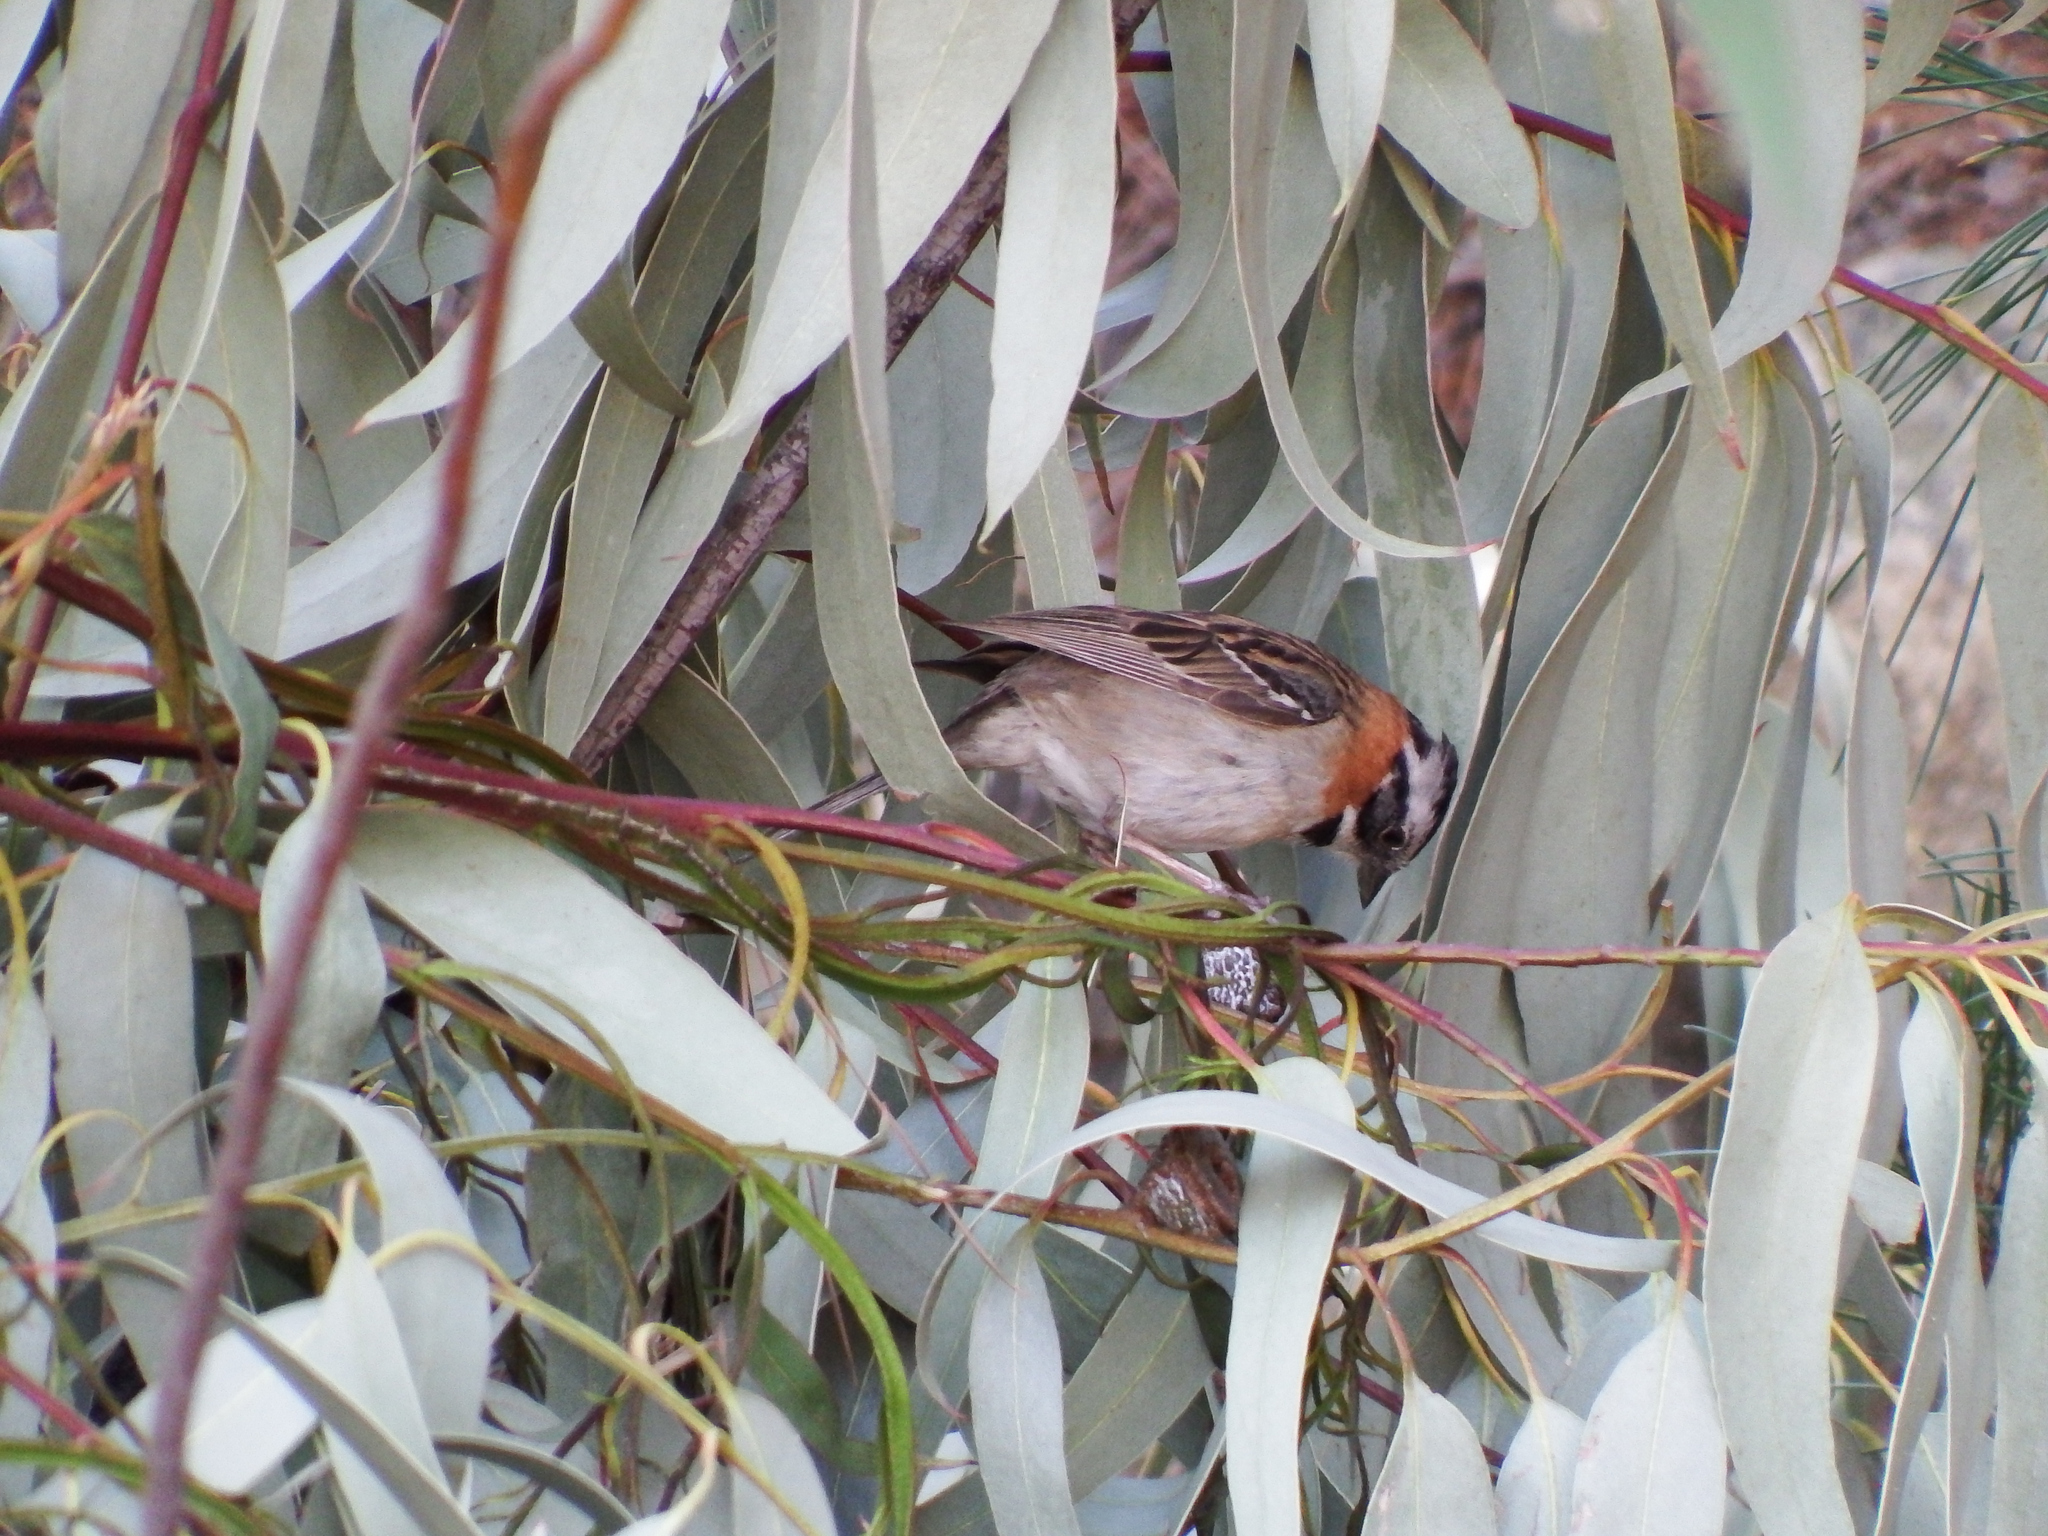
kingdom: Animalia
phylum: Chordata
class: Aves
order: Passeriformes
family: Passerellidae
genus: Zonotrichia
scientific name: Zonotrichia capensis
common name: Rufous-collared sparrow
